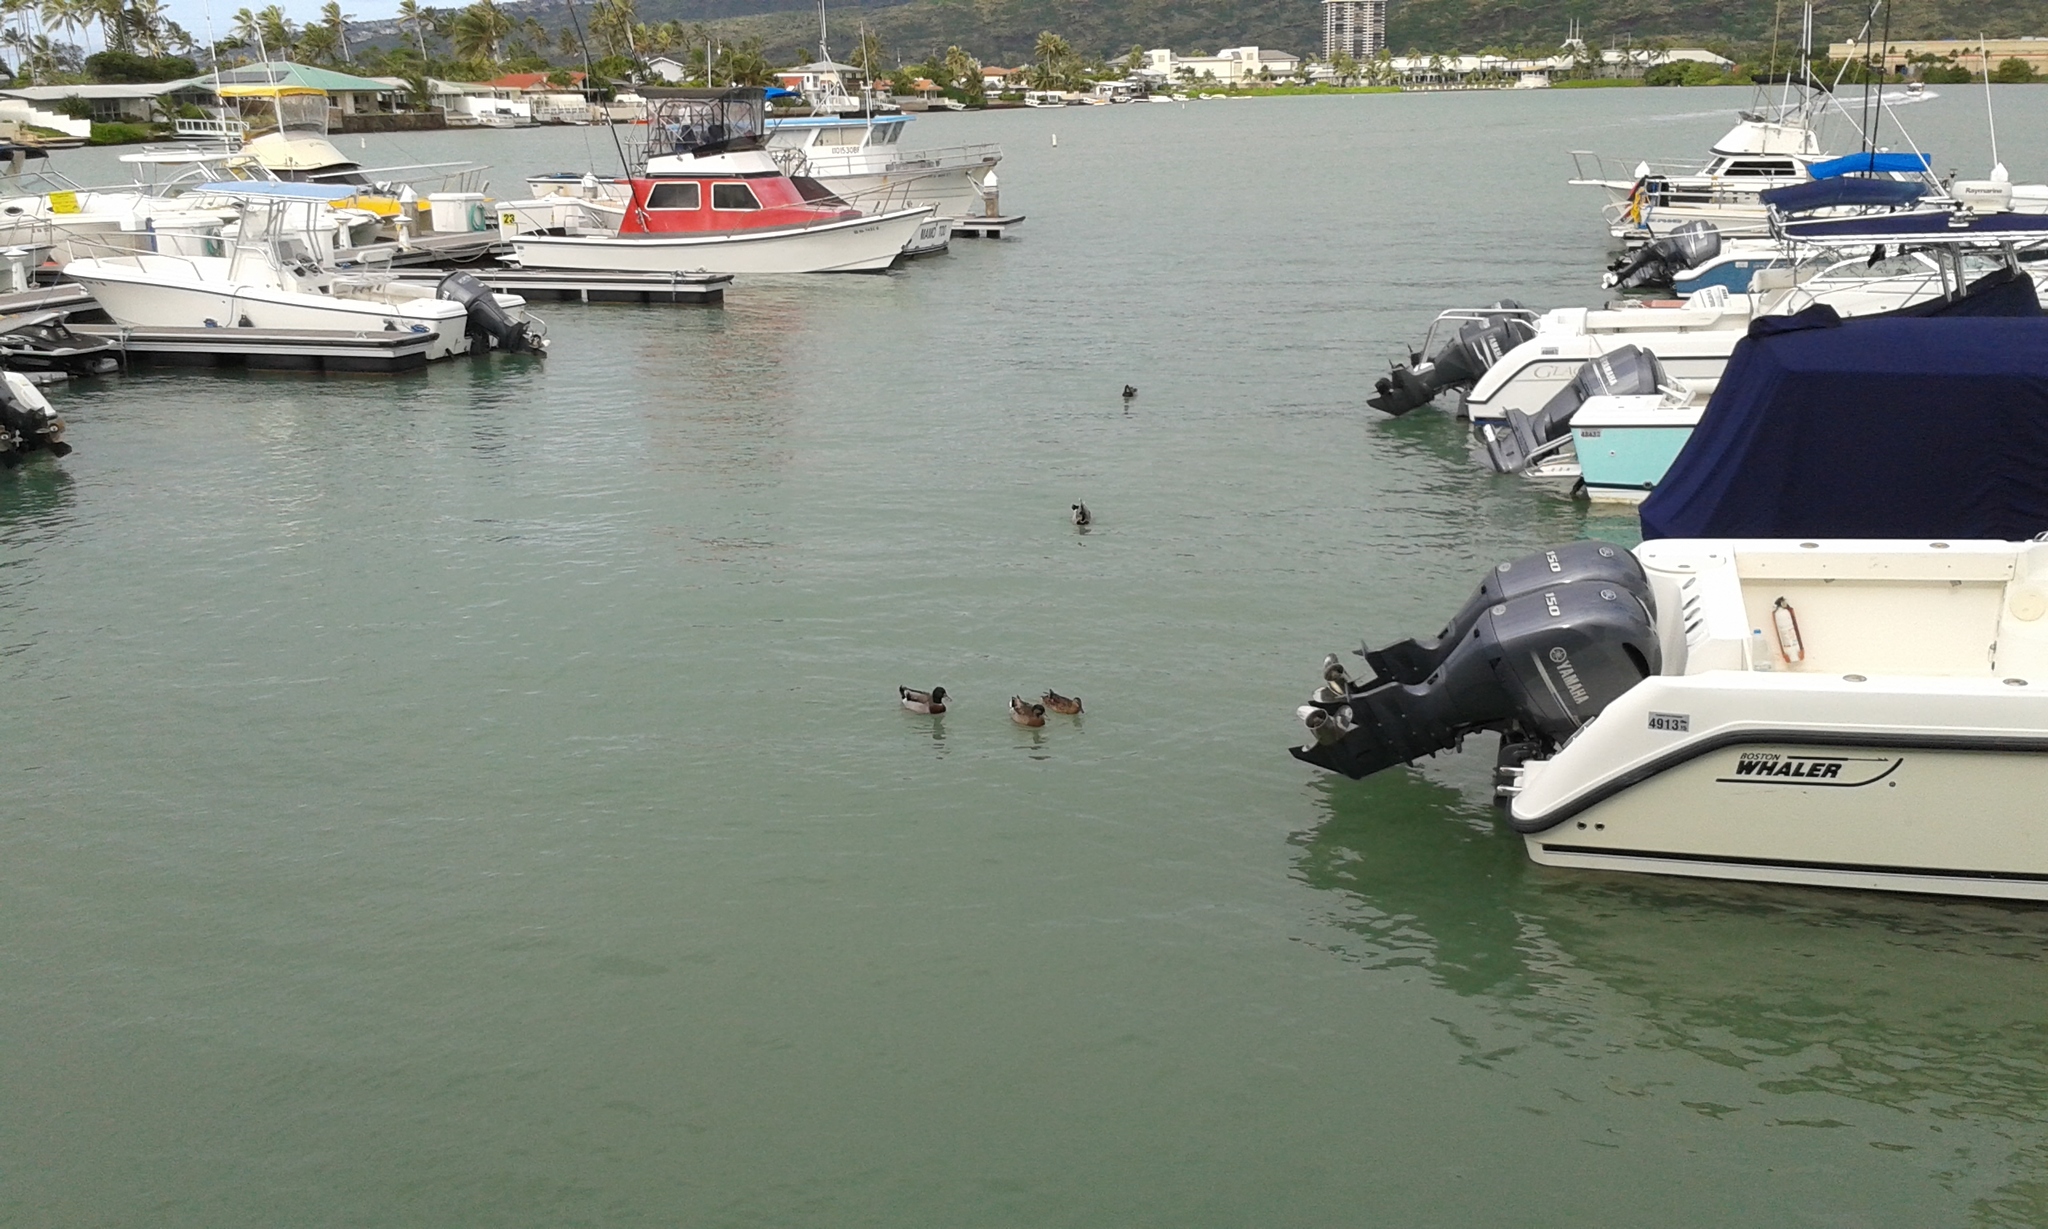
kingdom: Animalia
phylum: Chordata
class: Aves
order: Anseriformes
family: Anatidae
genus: Anas
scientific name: Anas platyrhynchos
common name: Mallard
